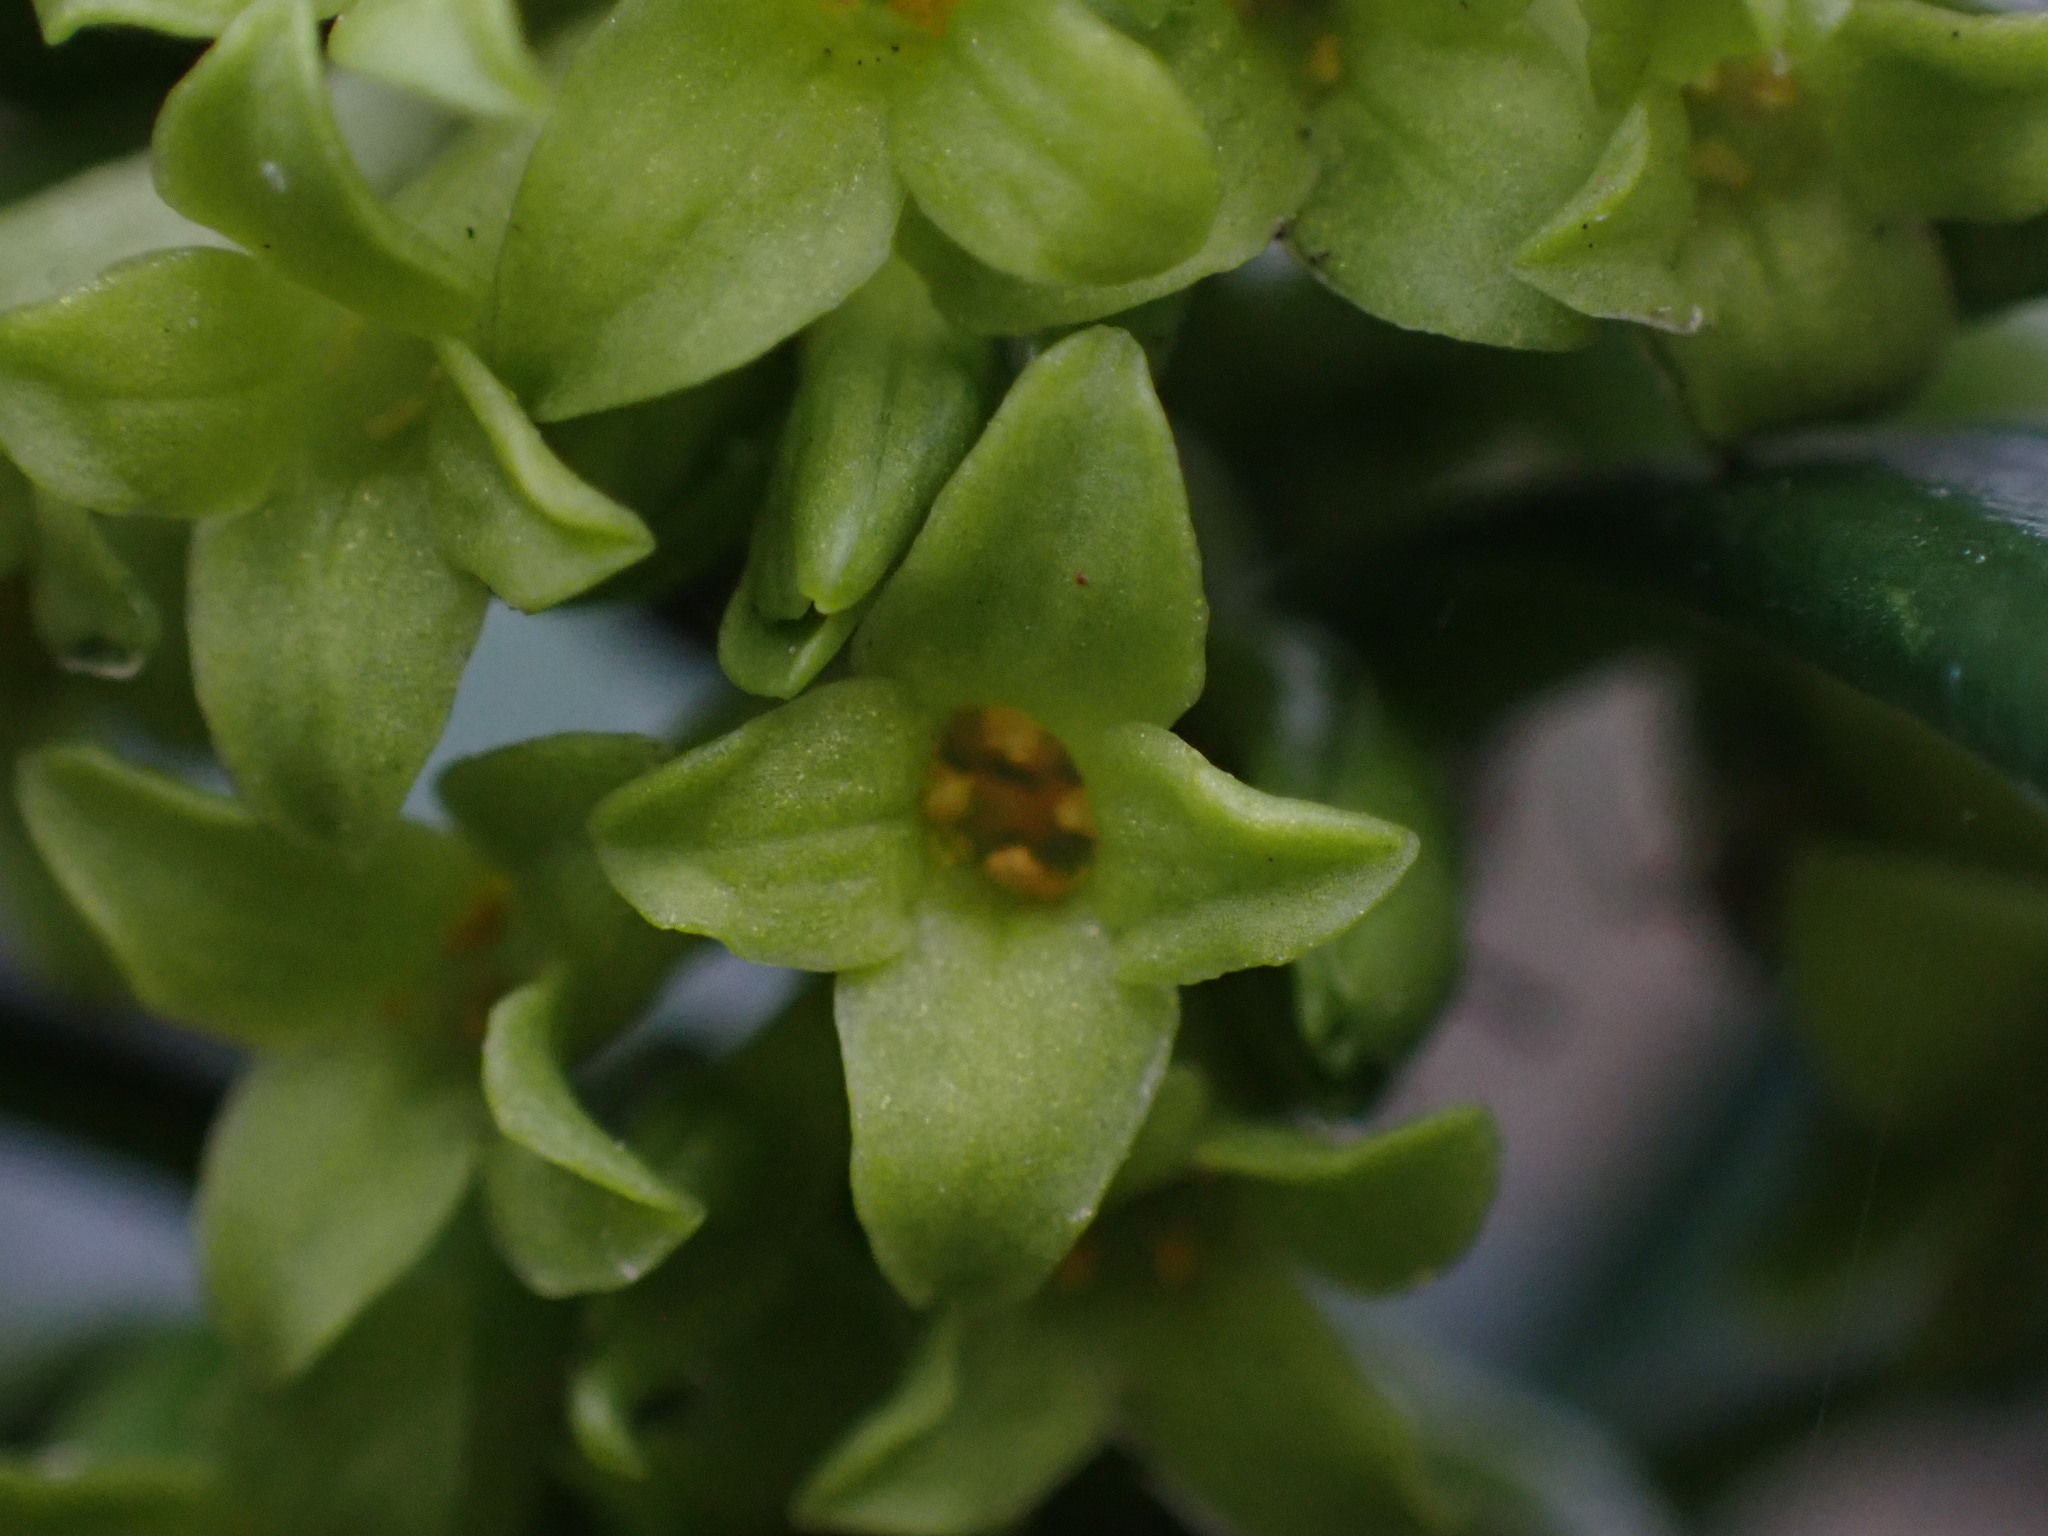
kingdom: Plantae
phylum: Tracheophyta
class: Magnoliopsida
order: Malvales
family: Thymelaeaceae
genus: Daphne
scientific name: Daphne laureola
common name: Spurge-laurel
